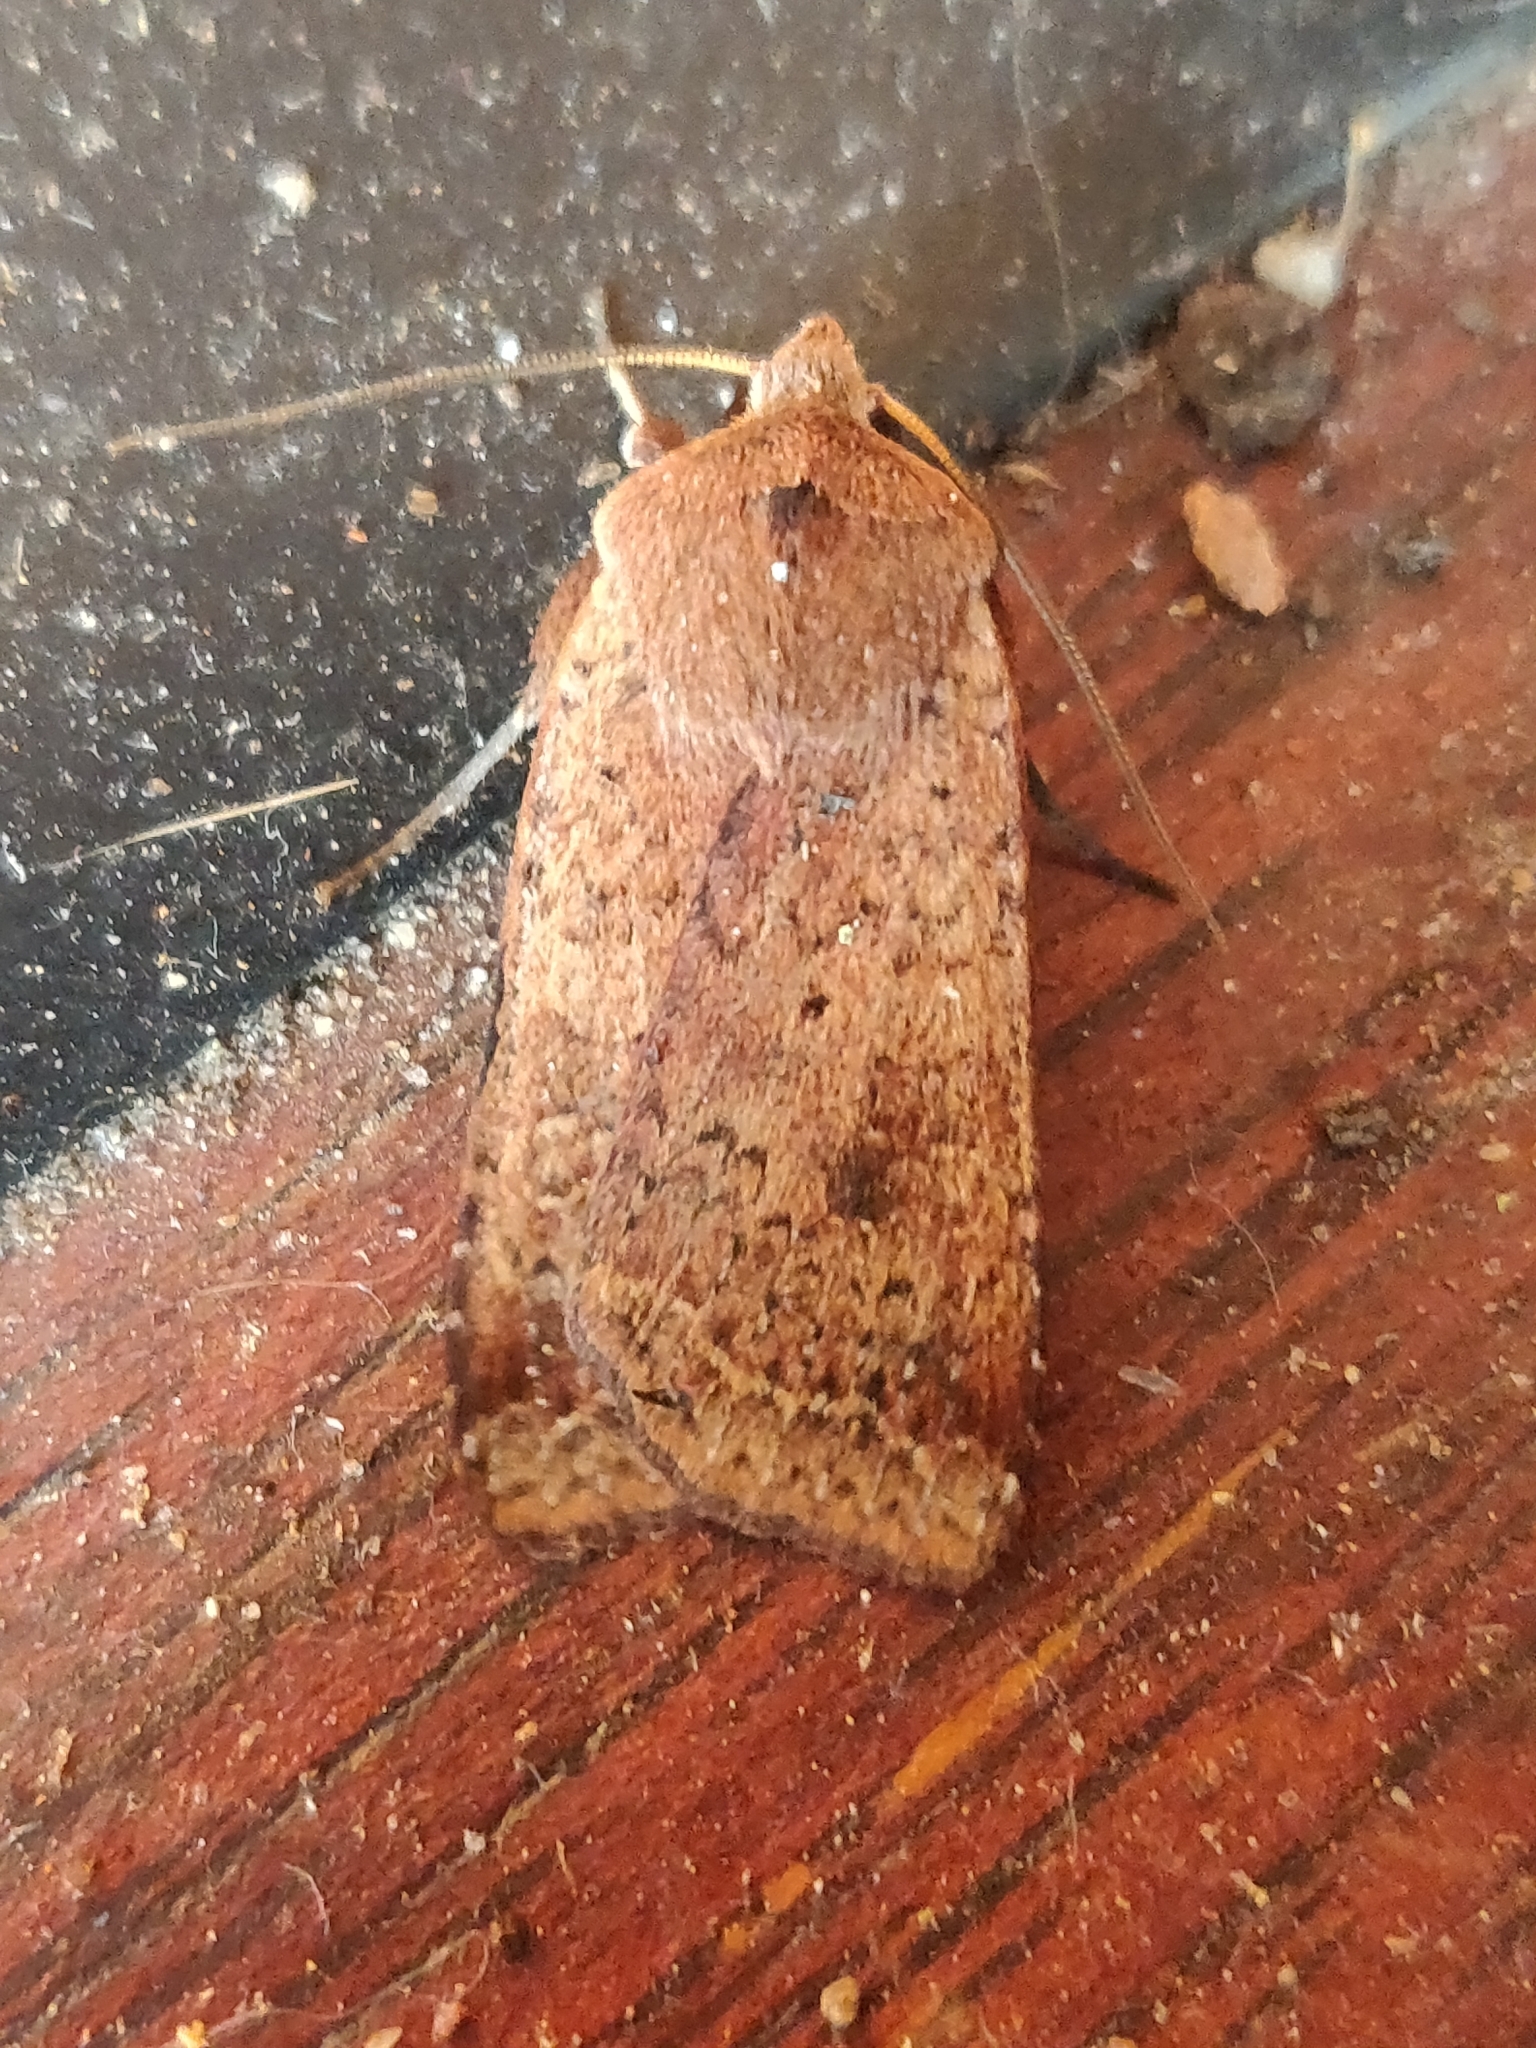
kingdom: Animalia
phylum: Arthropoda
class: Insecta
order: Lepidoptera
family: Noctuidae
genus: Diarsia
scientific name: Diarsia intermixta
